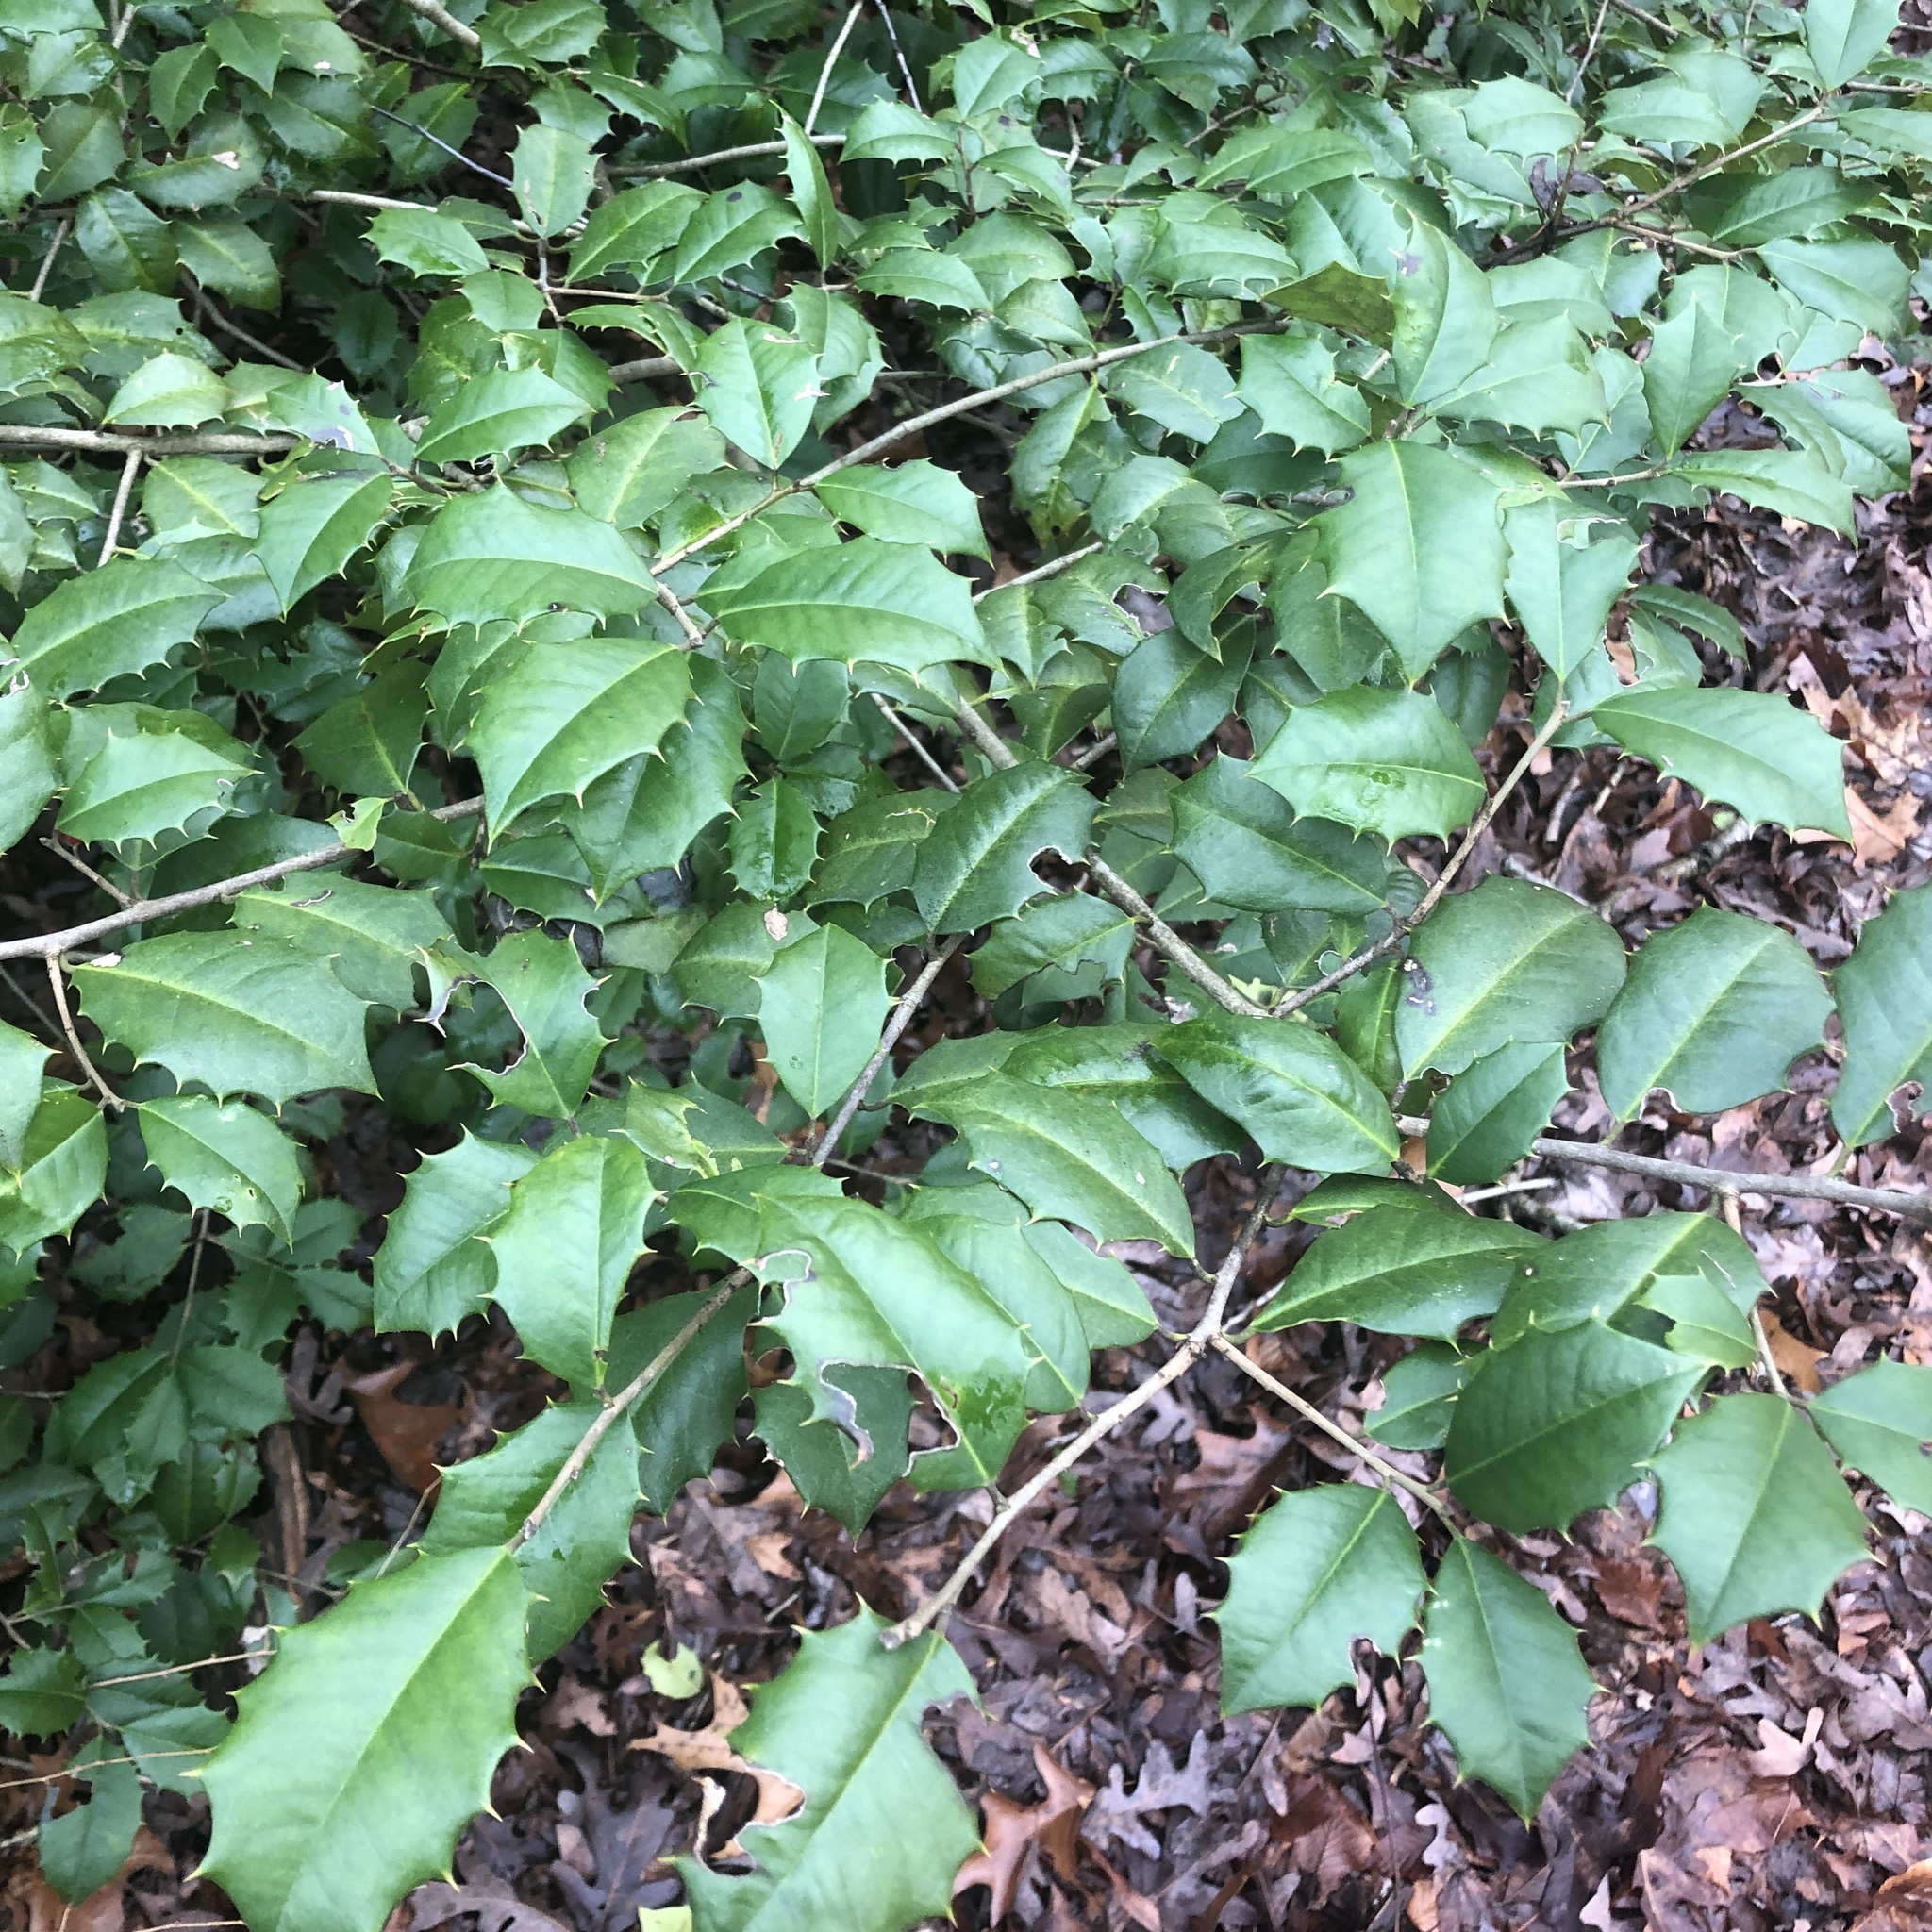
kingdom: Plantae
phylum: Tracheophyta
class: Magnoliopsida
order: Aquifoliales
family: Aquifoliaceae
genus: Ilex
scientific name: Ilex opaca
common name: American holly
